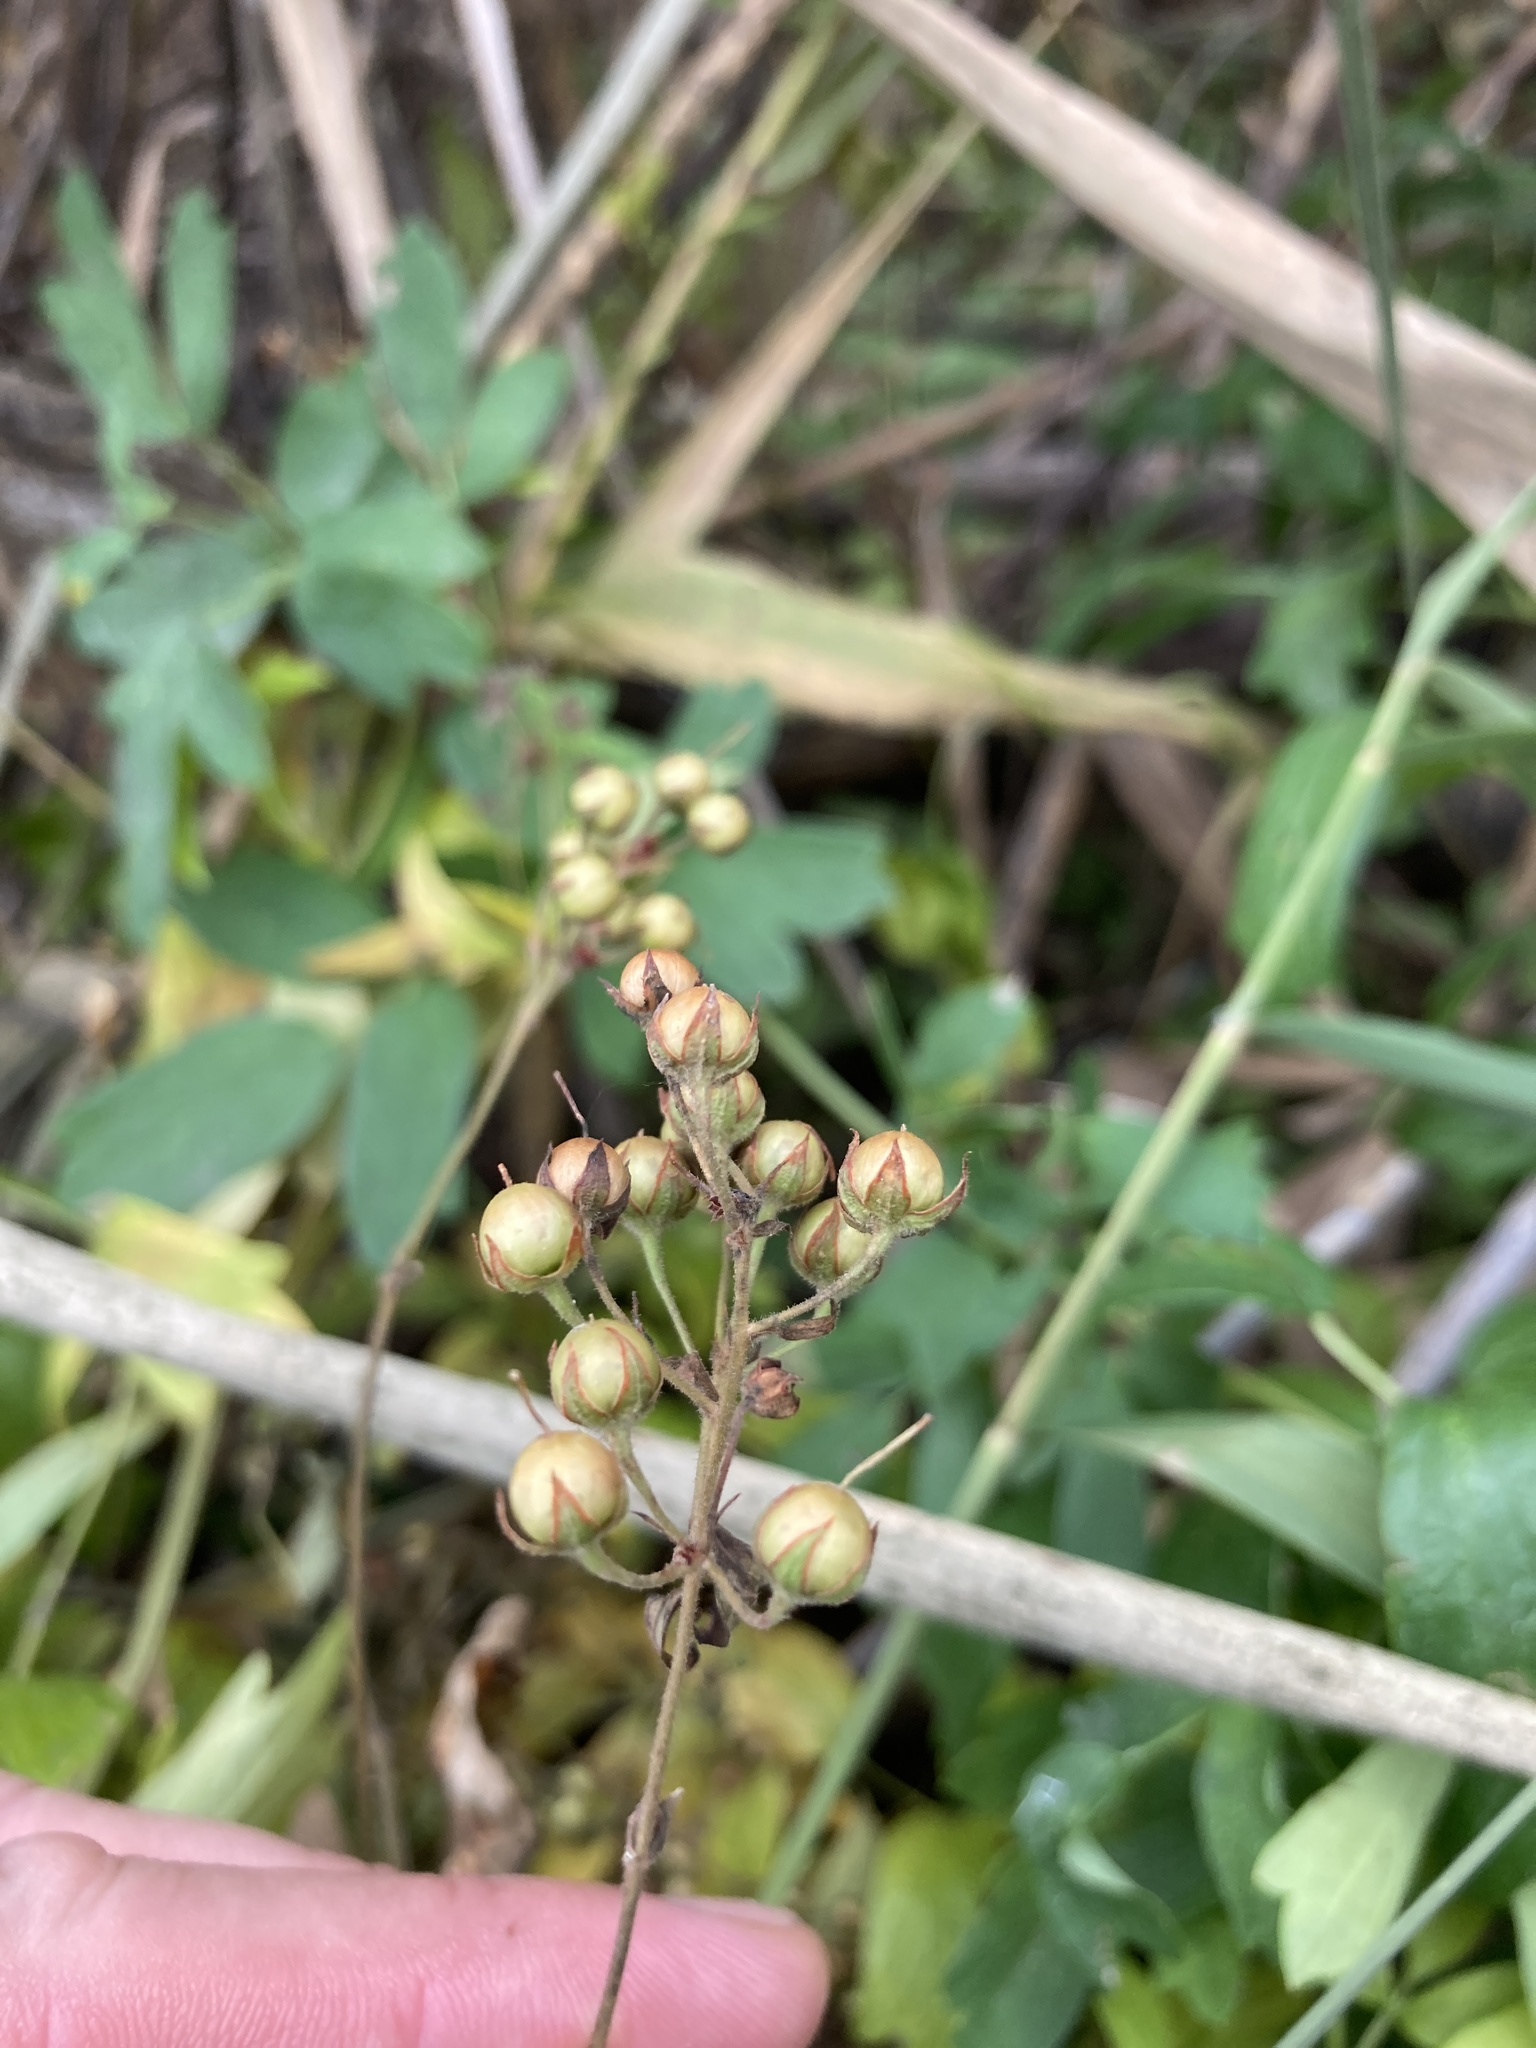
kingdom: Plantae
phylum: Tracheophyta
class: Magnoliopsida
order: Ericales
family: Primulaceae
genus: Lysimachia
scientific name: Lysimachia vulgaris
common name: Yellow loosestrife
